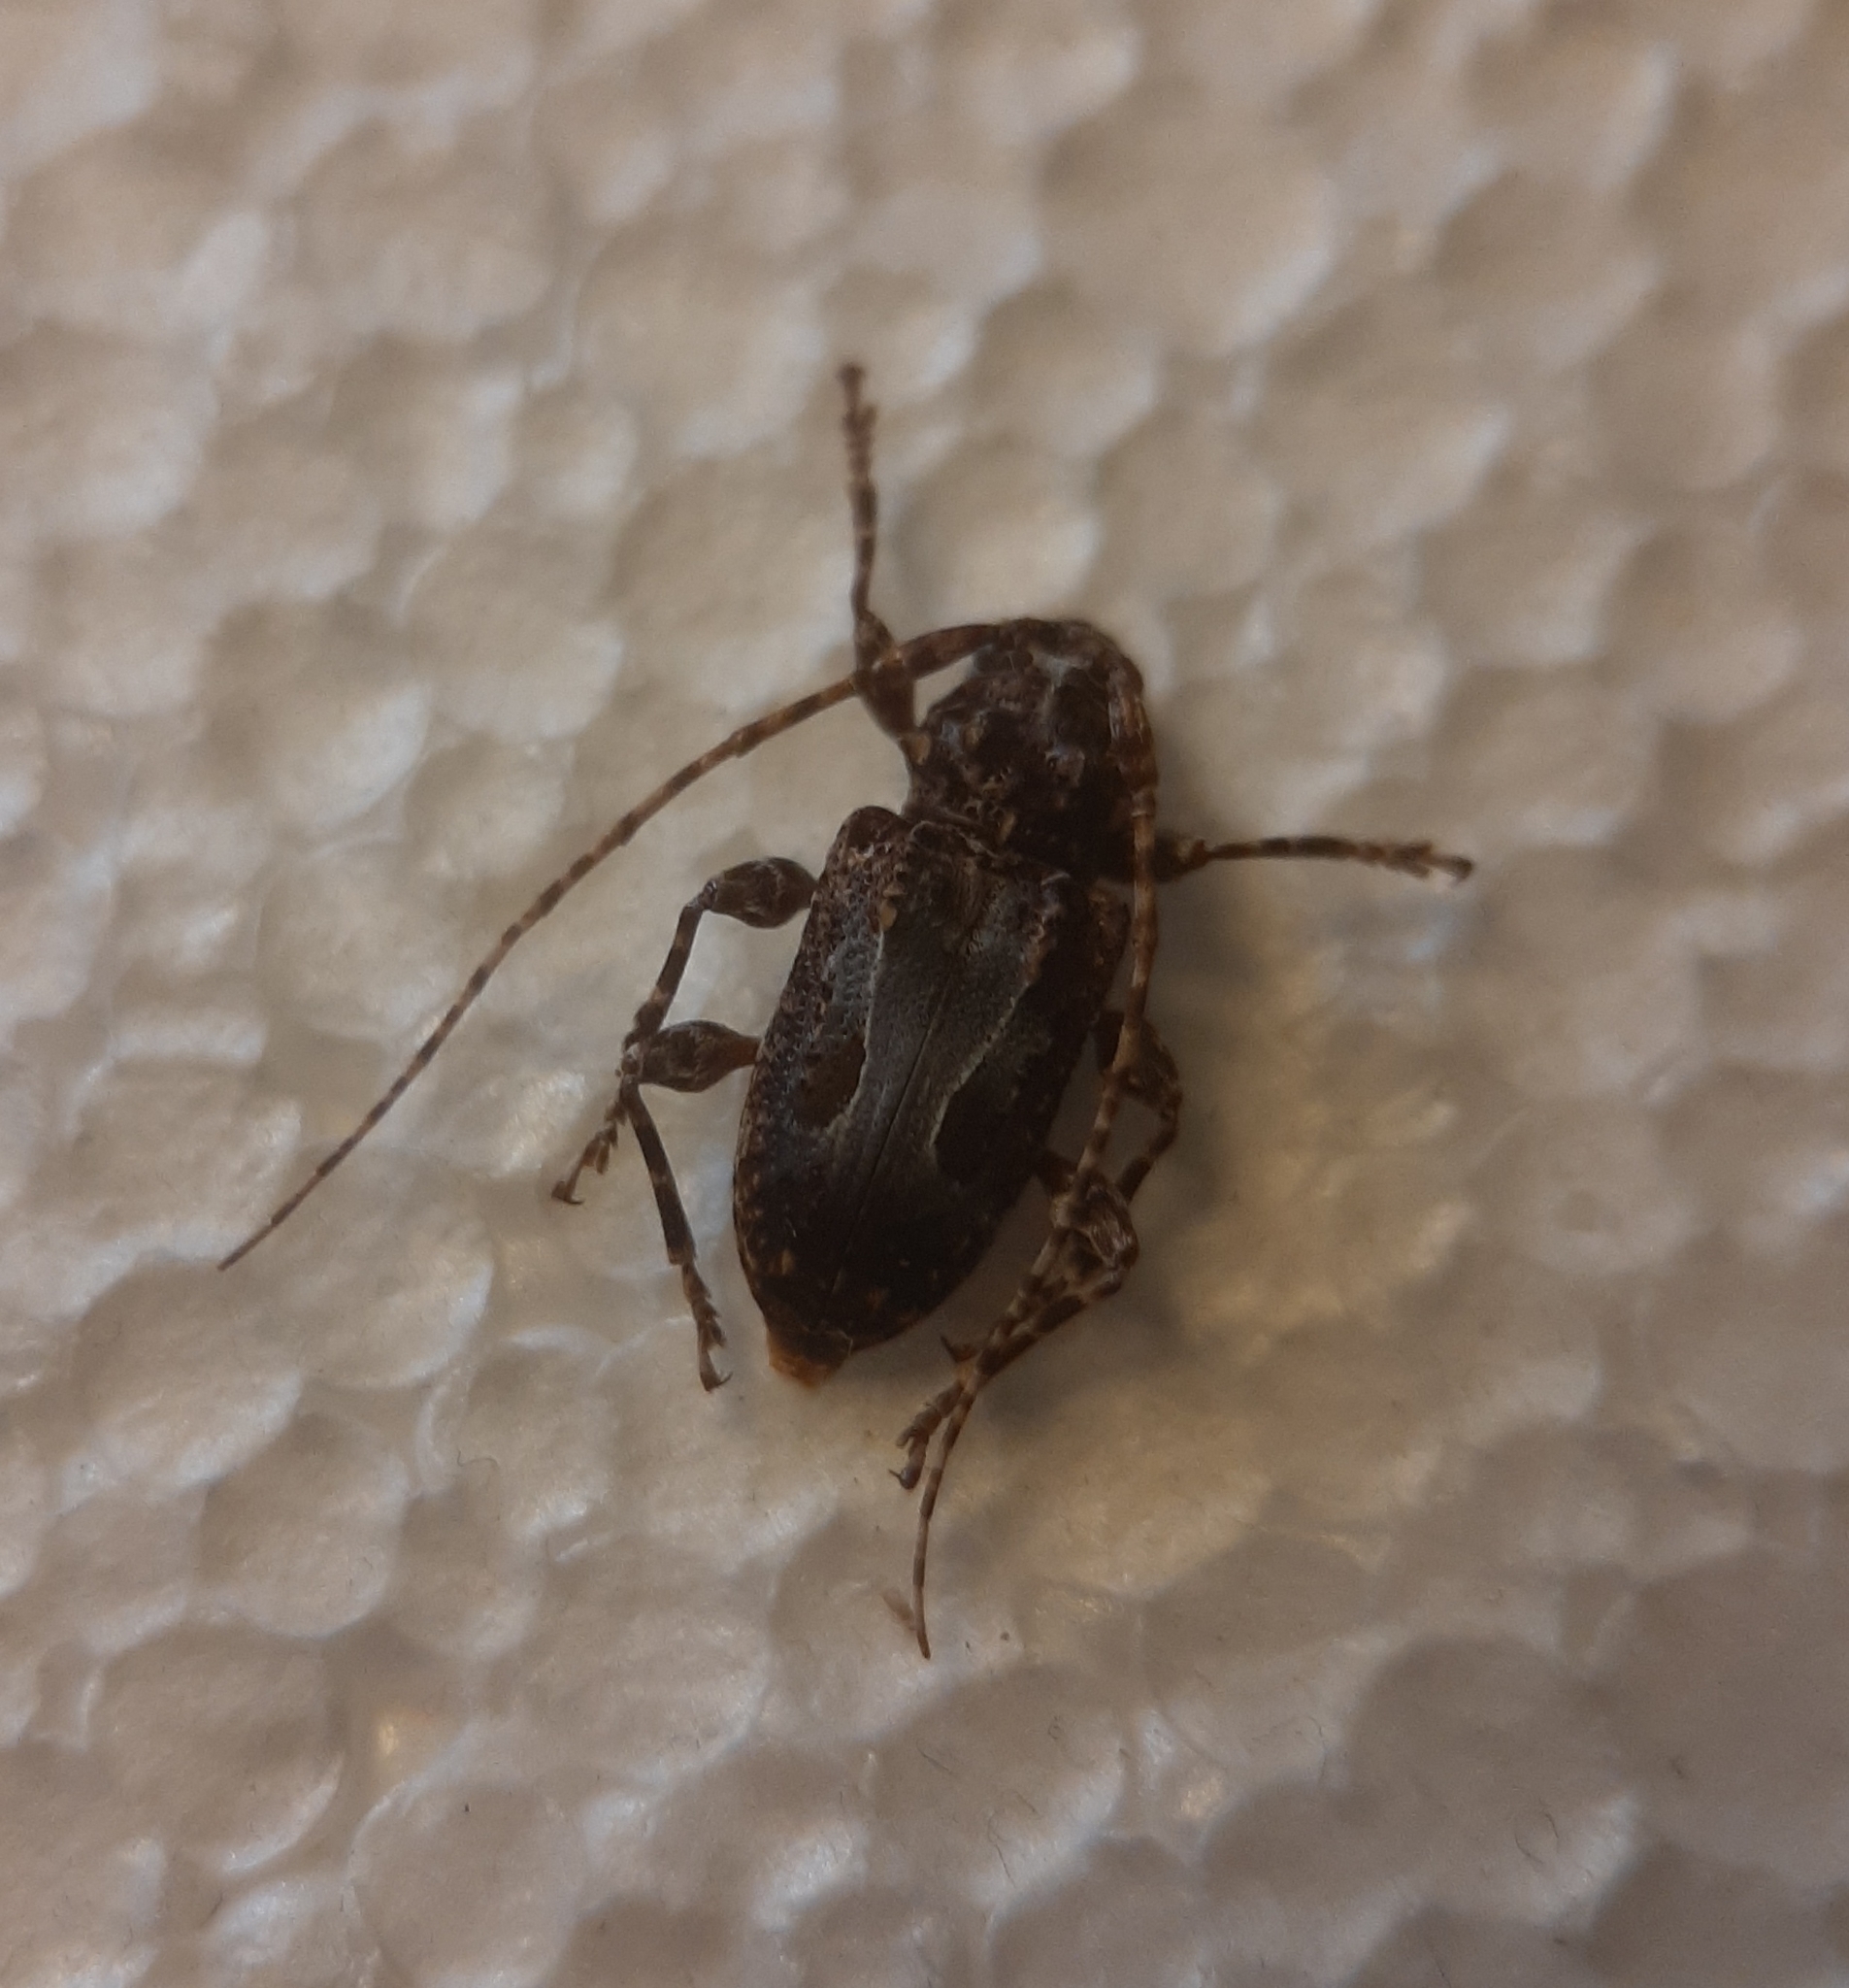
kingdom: Animalia
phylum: Arthropoda
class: Insecta
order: Coleoptera
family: Cerambycidae
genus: Exalphus
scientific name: Exalphus biannulatus
